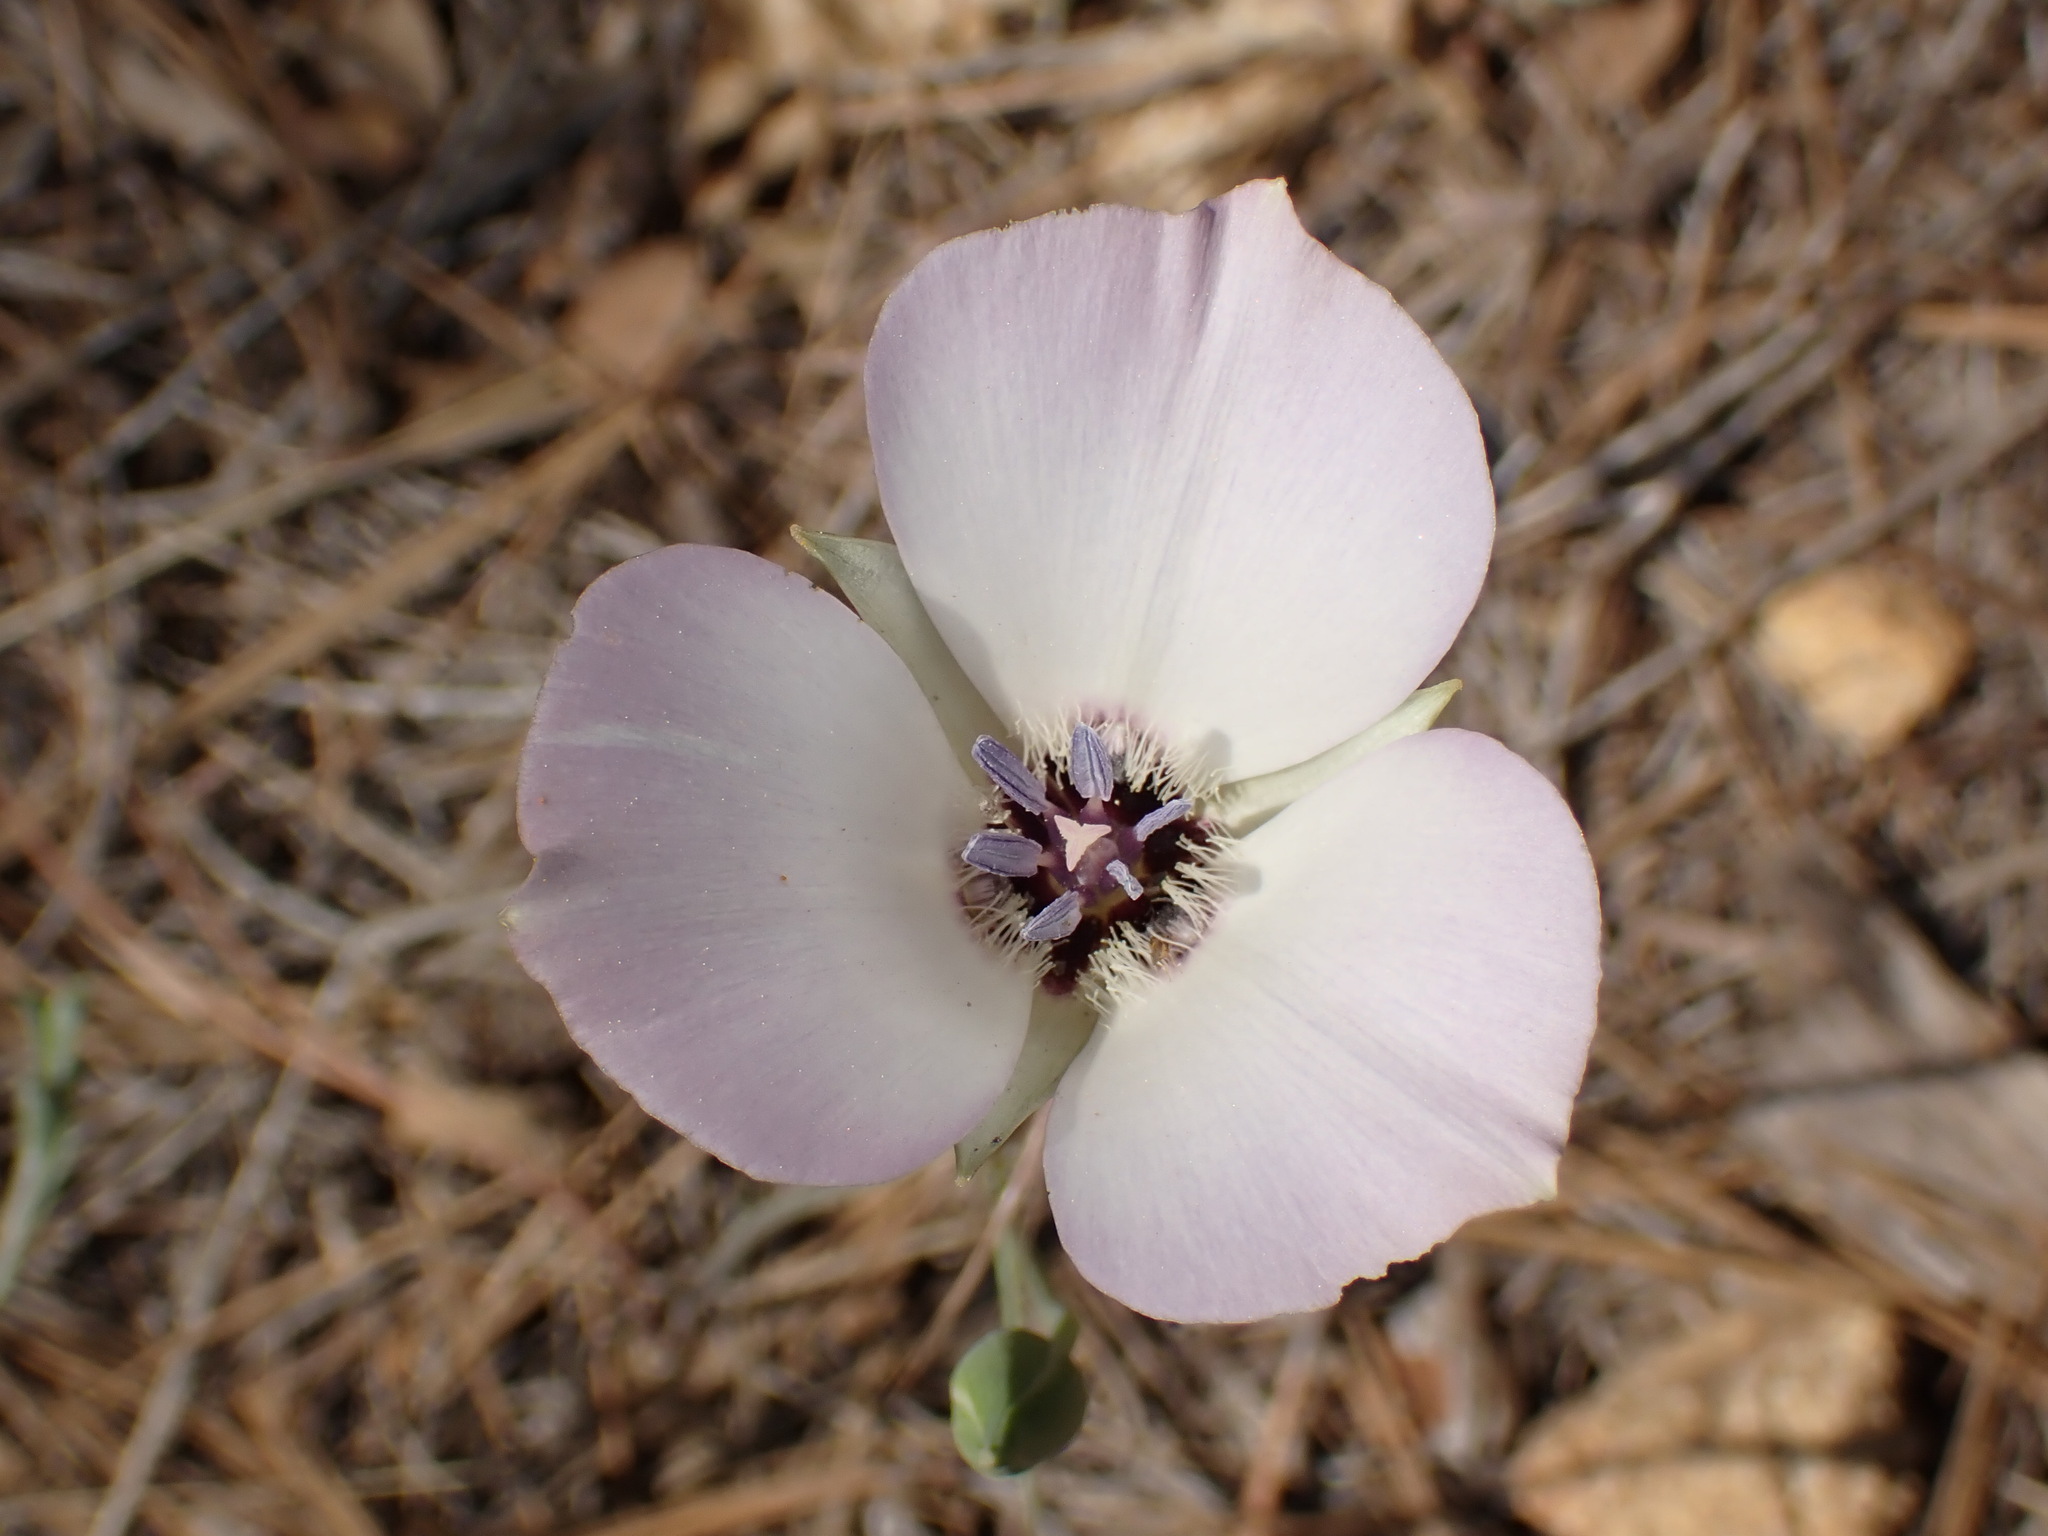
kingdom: Plantae
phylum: Tracheophyta
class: Liliopsida
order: Liliales
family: Liliaceae
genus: Calochortus
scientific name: Calochortus invenustus
